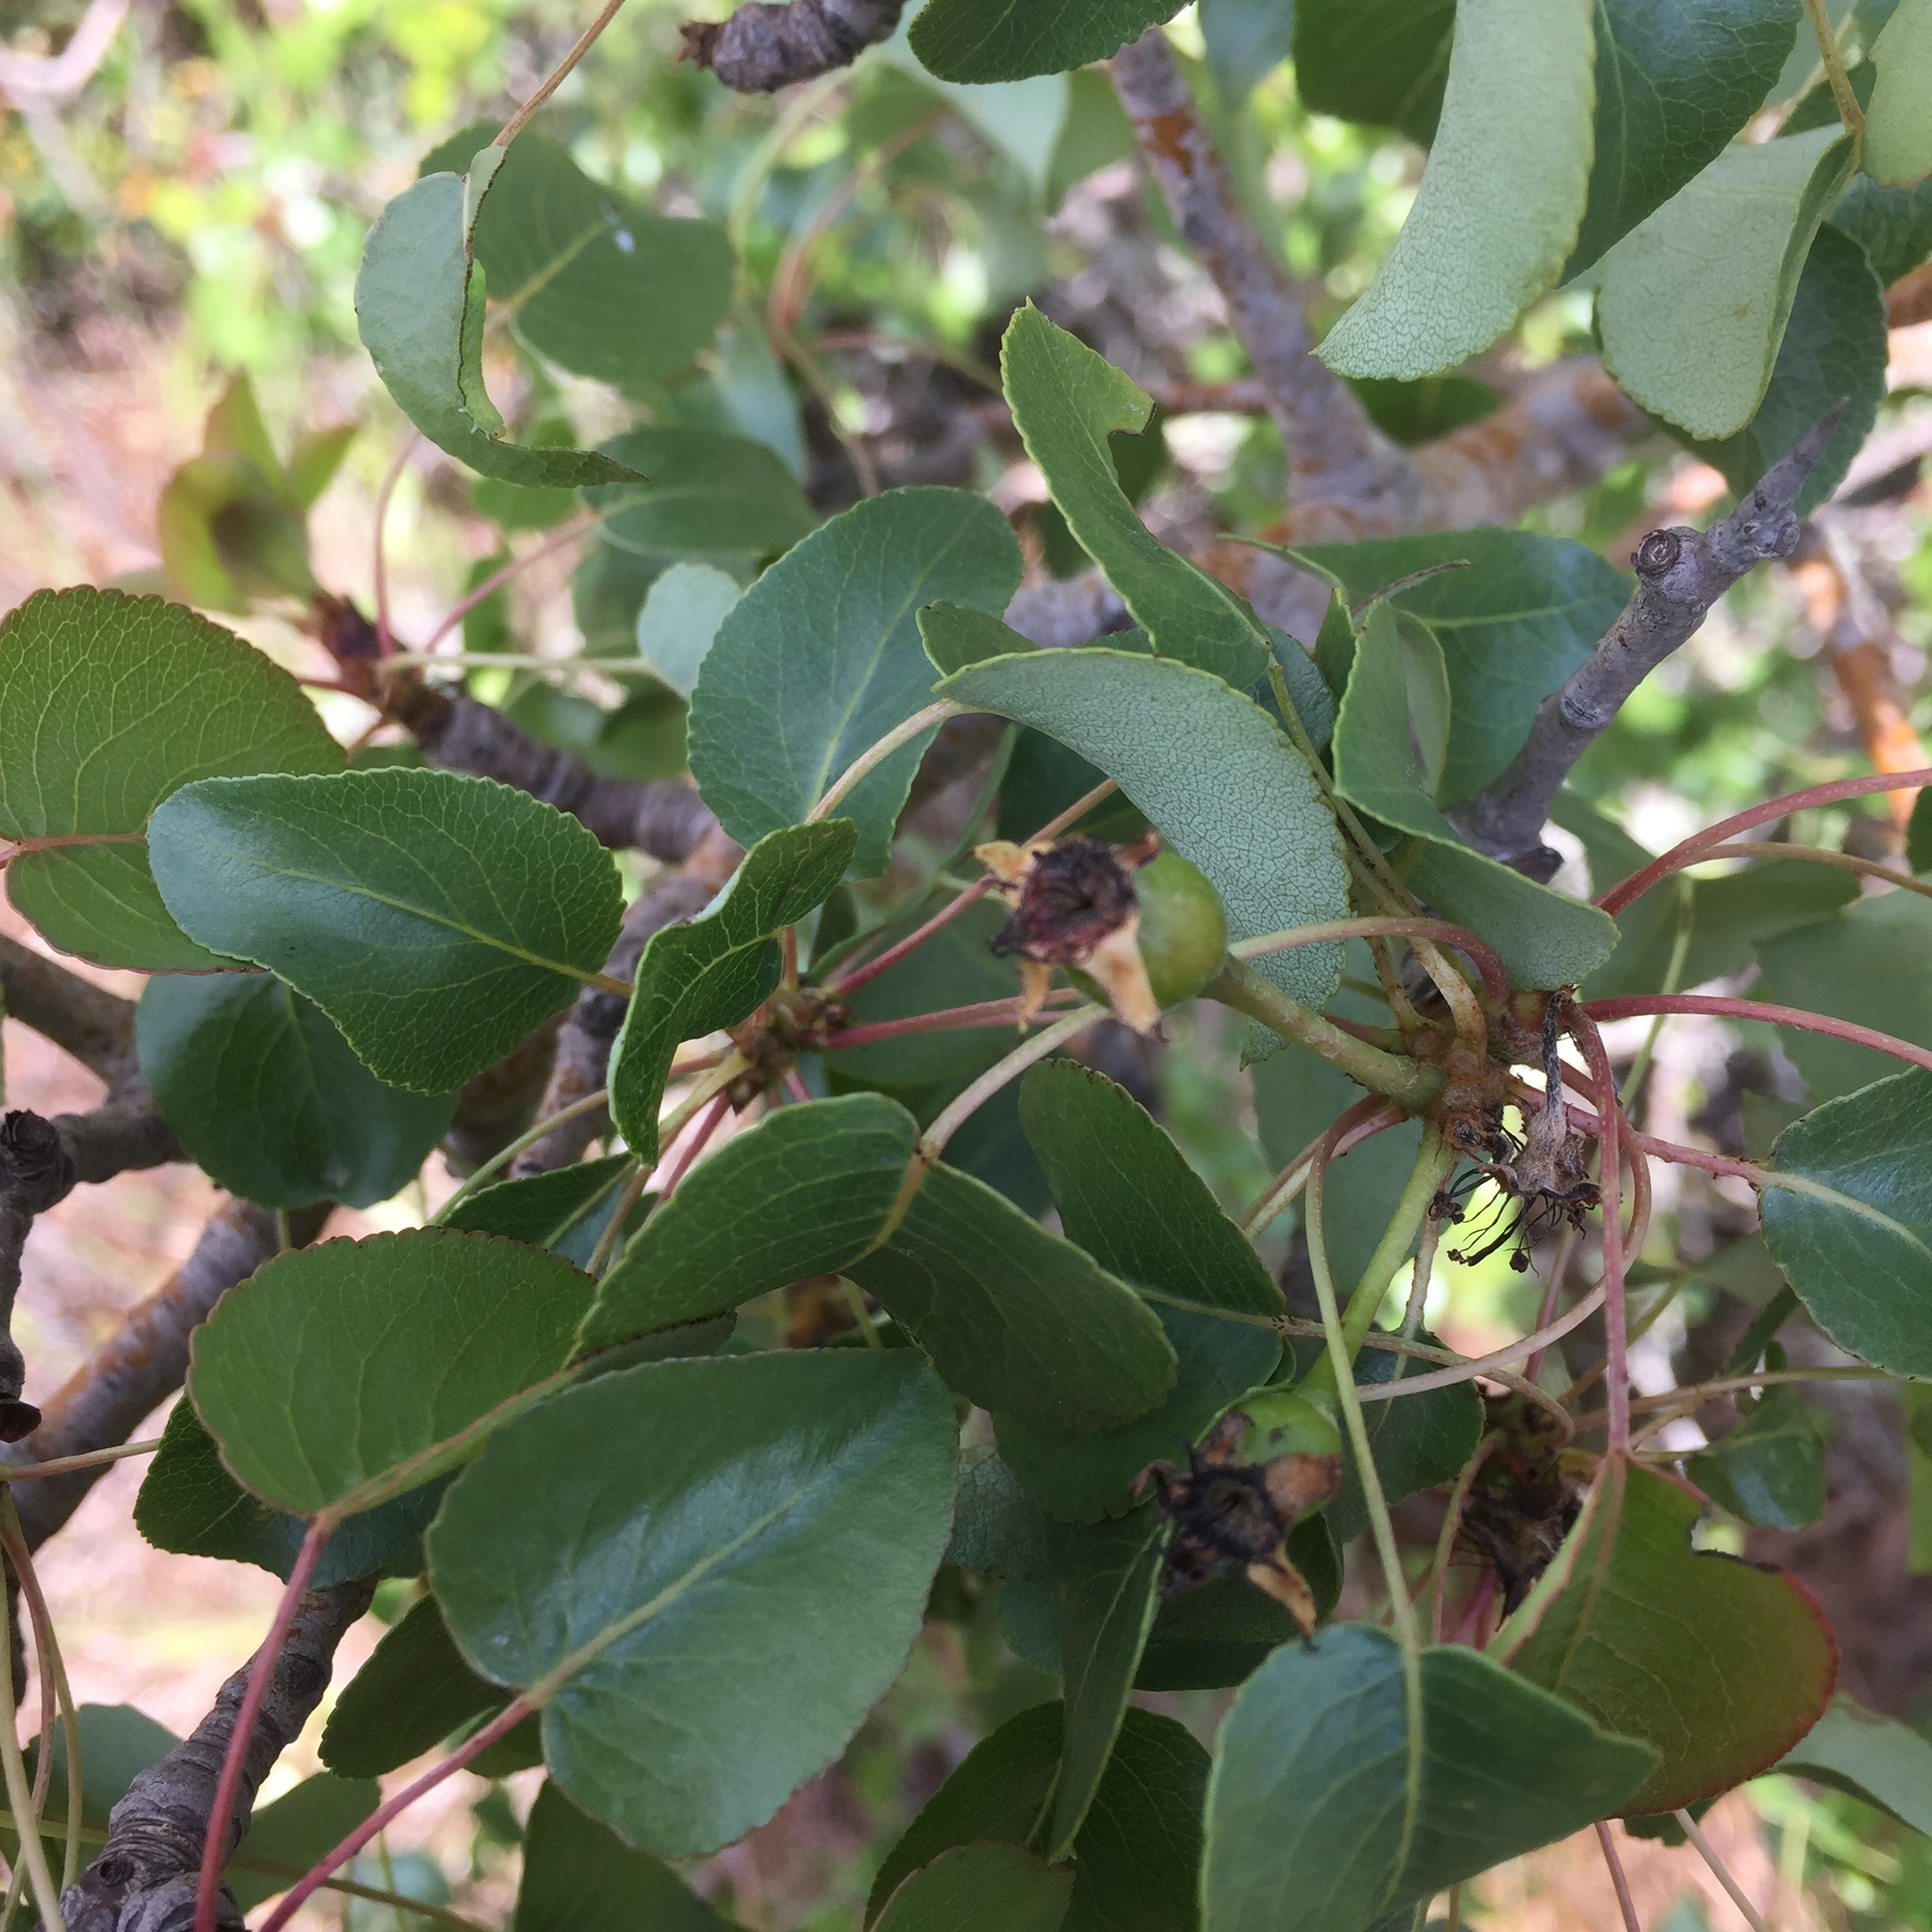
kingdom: Plantae
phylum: Tracheophyta
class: Magnoliopsida
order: Rosales
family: Rosaceae
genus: Pyrus
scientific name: Pyrus bourgaeana
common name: Iberian pear
